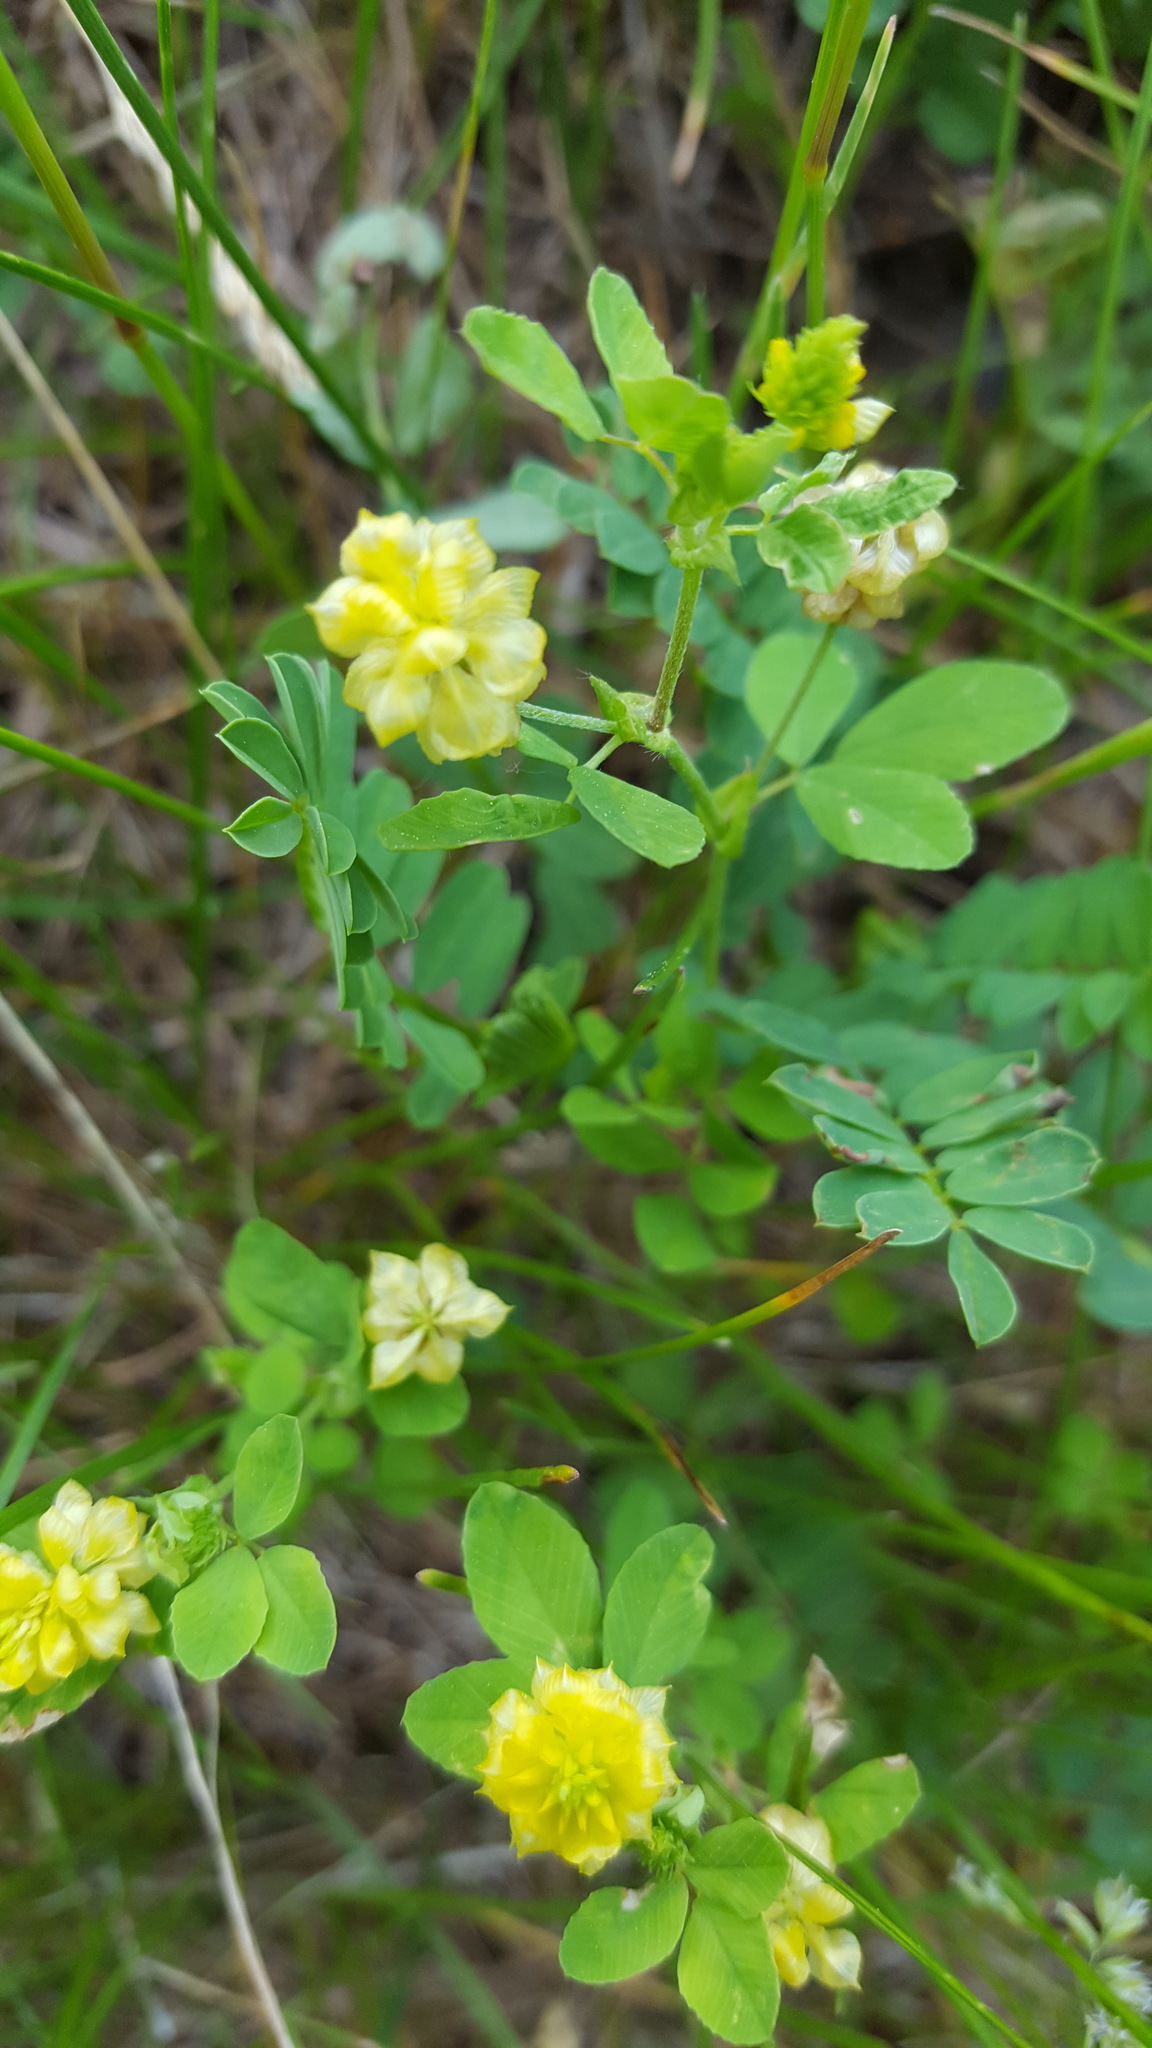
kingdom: Plantae
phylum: Tracheophyta
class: Magnoliopsida
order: Fabales
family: Fabaceae
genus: Trifolium
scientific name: Trifolium campestre
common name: Field clover
